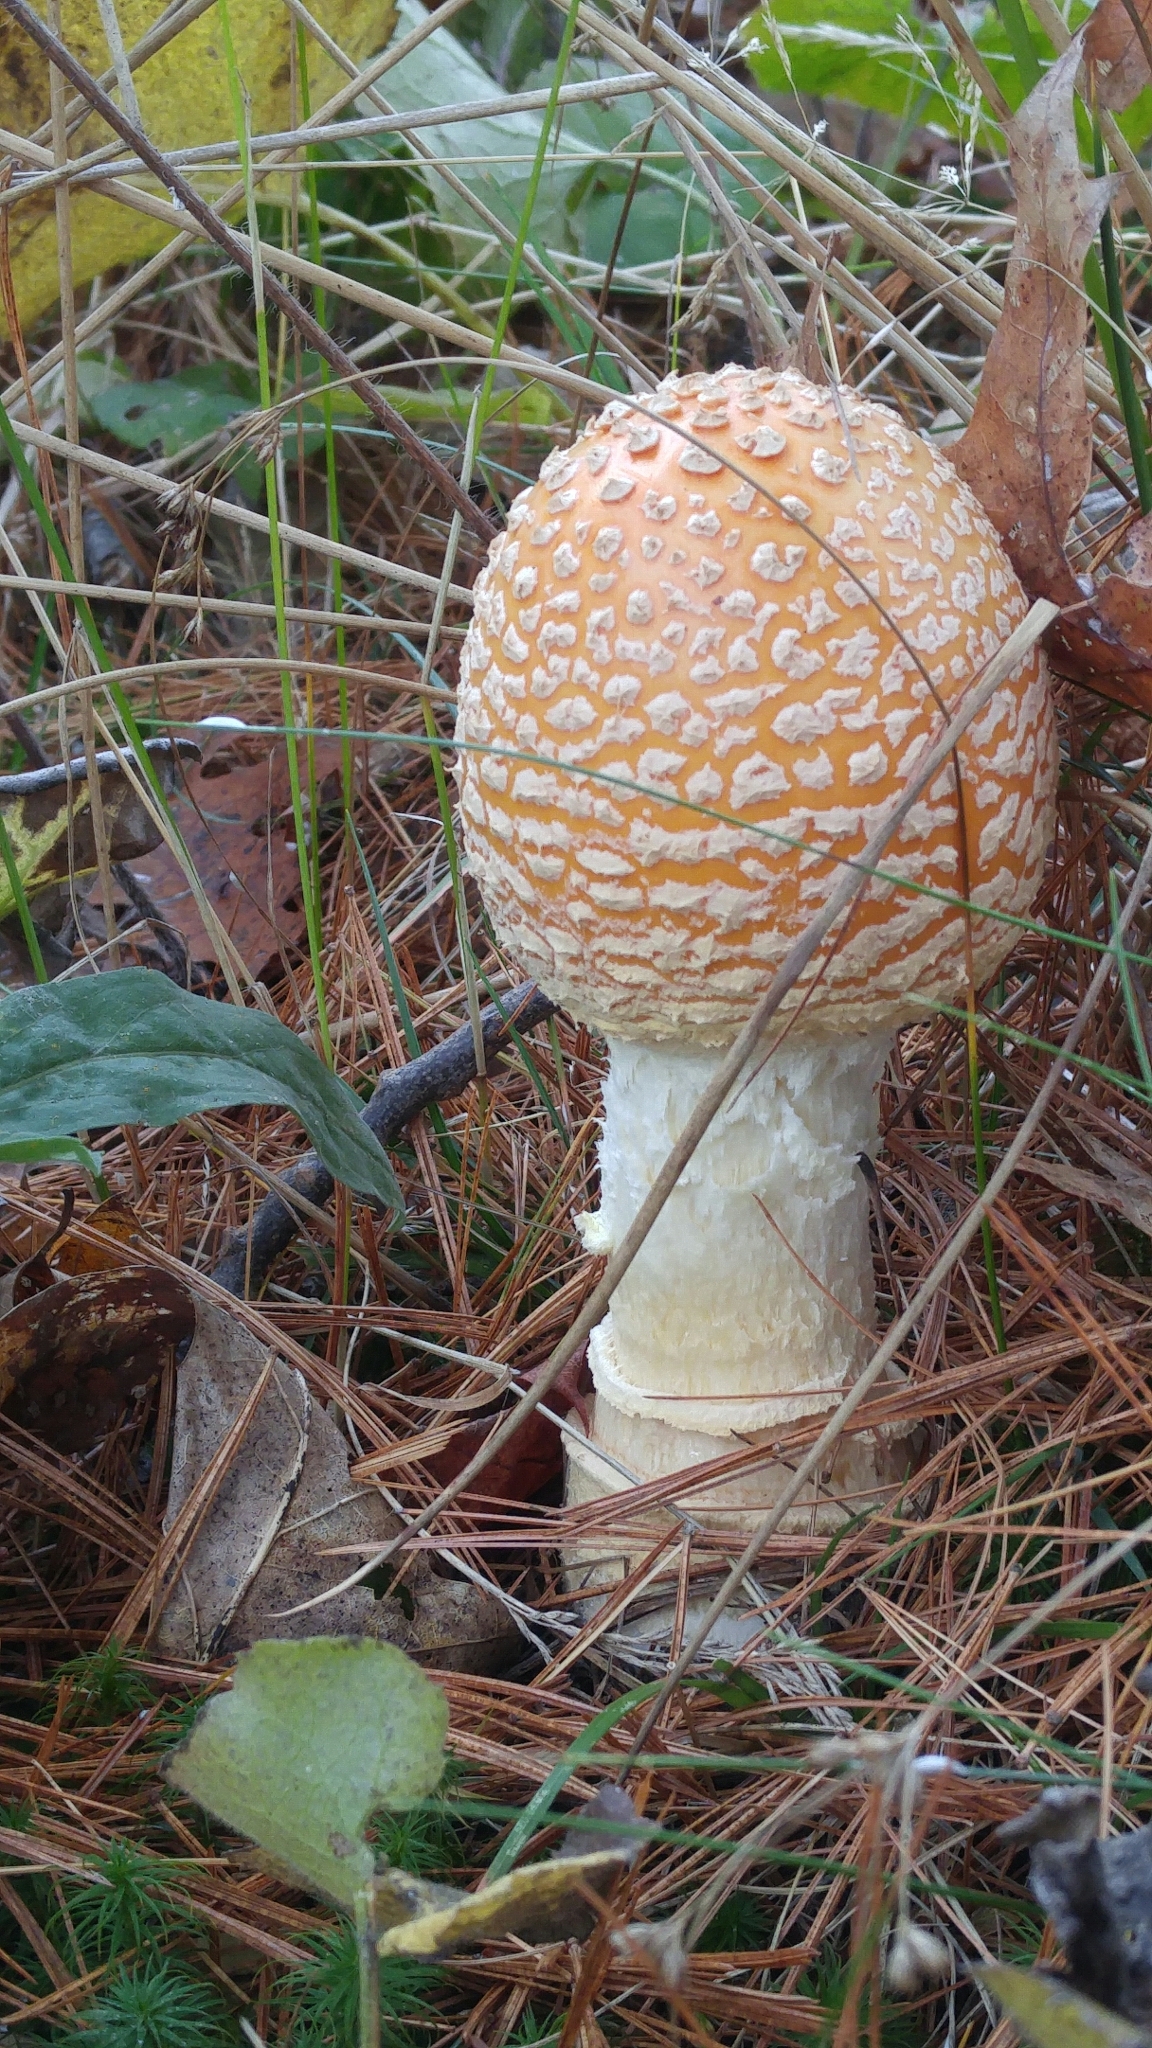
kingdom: Fungi
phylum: Basidiomycota
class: Agaricomycetes
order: Agaricales
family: Amanitaceae
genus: Amanita
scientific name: Amanita muscaria
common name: Fly agaric
